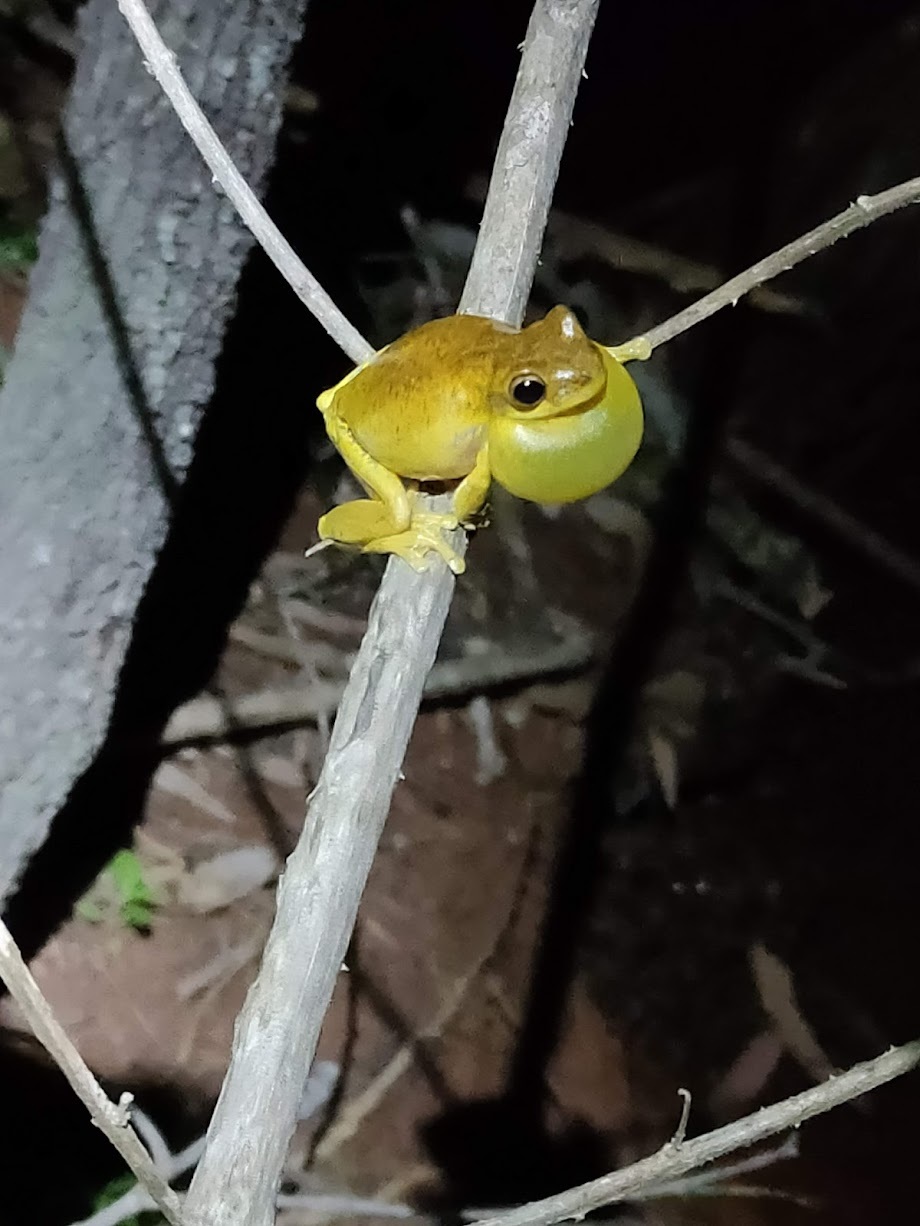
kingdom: Animalia
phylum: Chordata
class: Amphibia
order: Anura
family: Pelodryadidae
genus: Litoria
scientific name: Litoria tyleri
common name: Laughing tree frog
